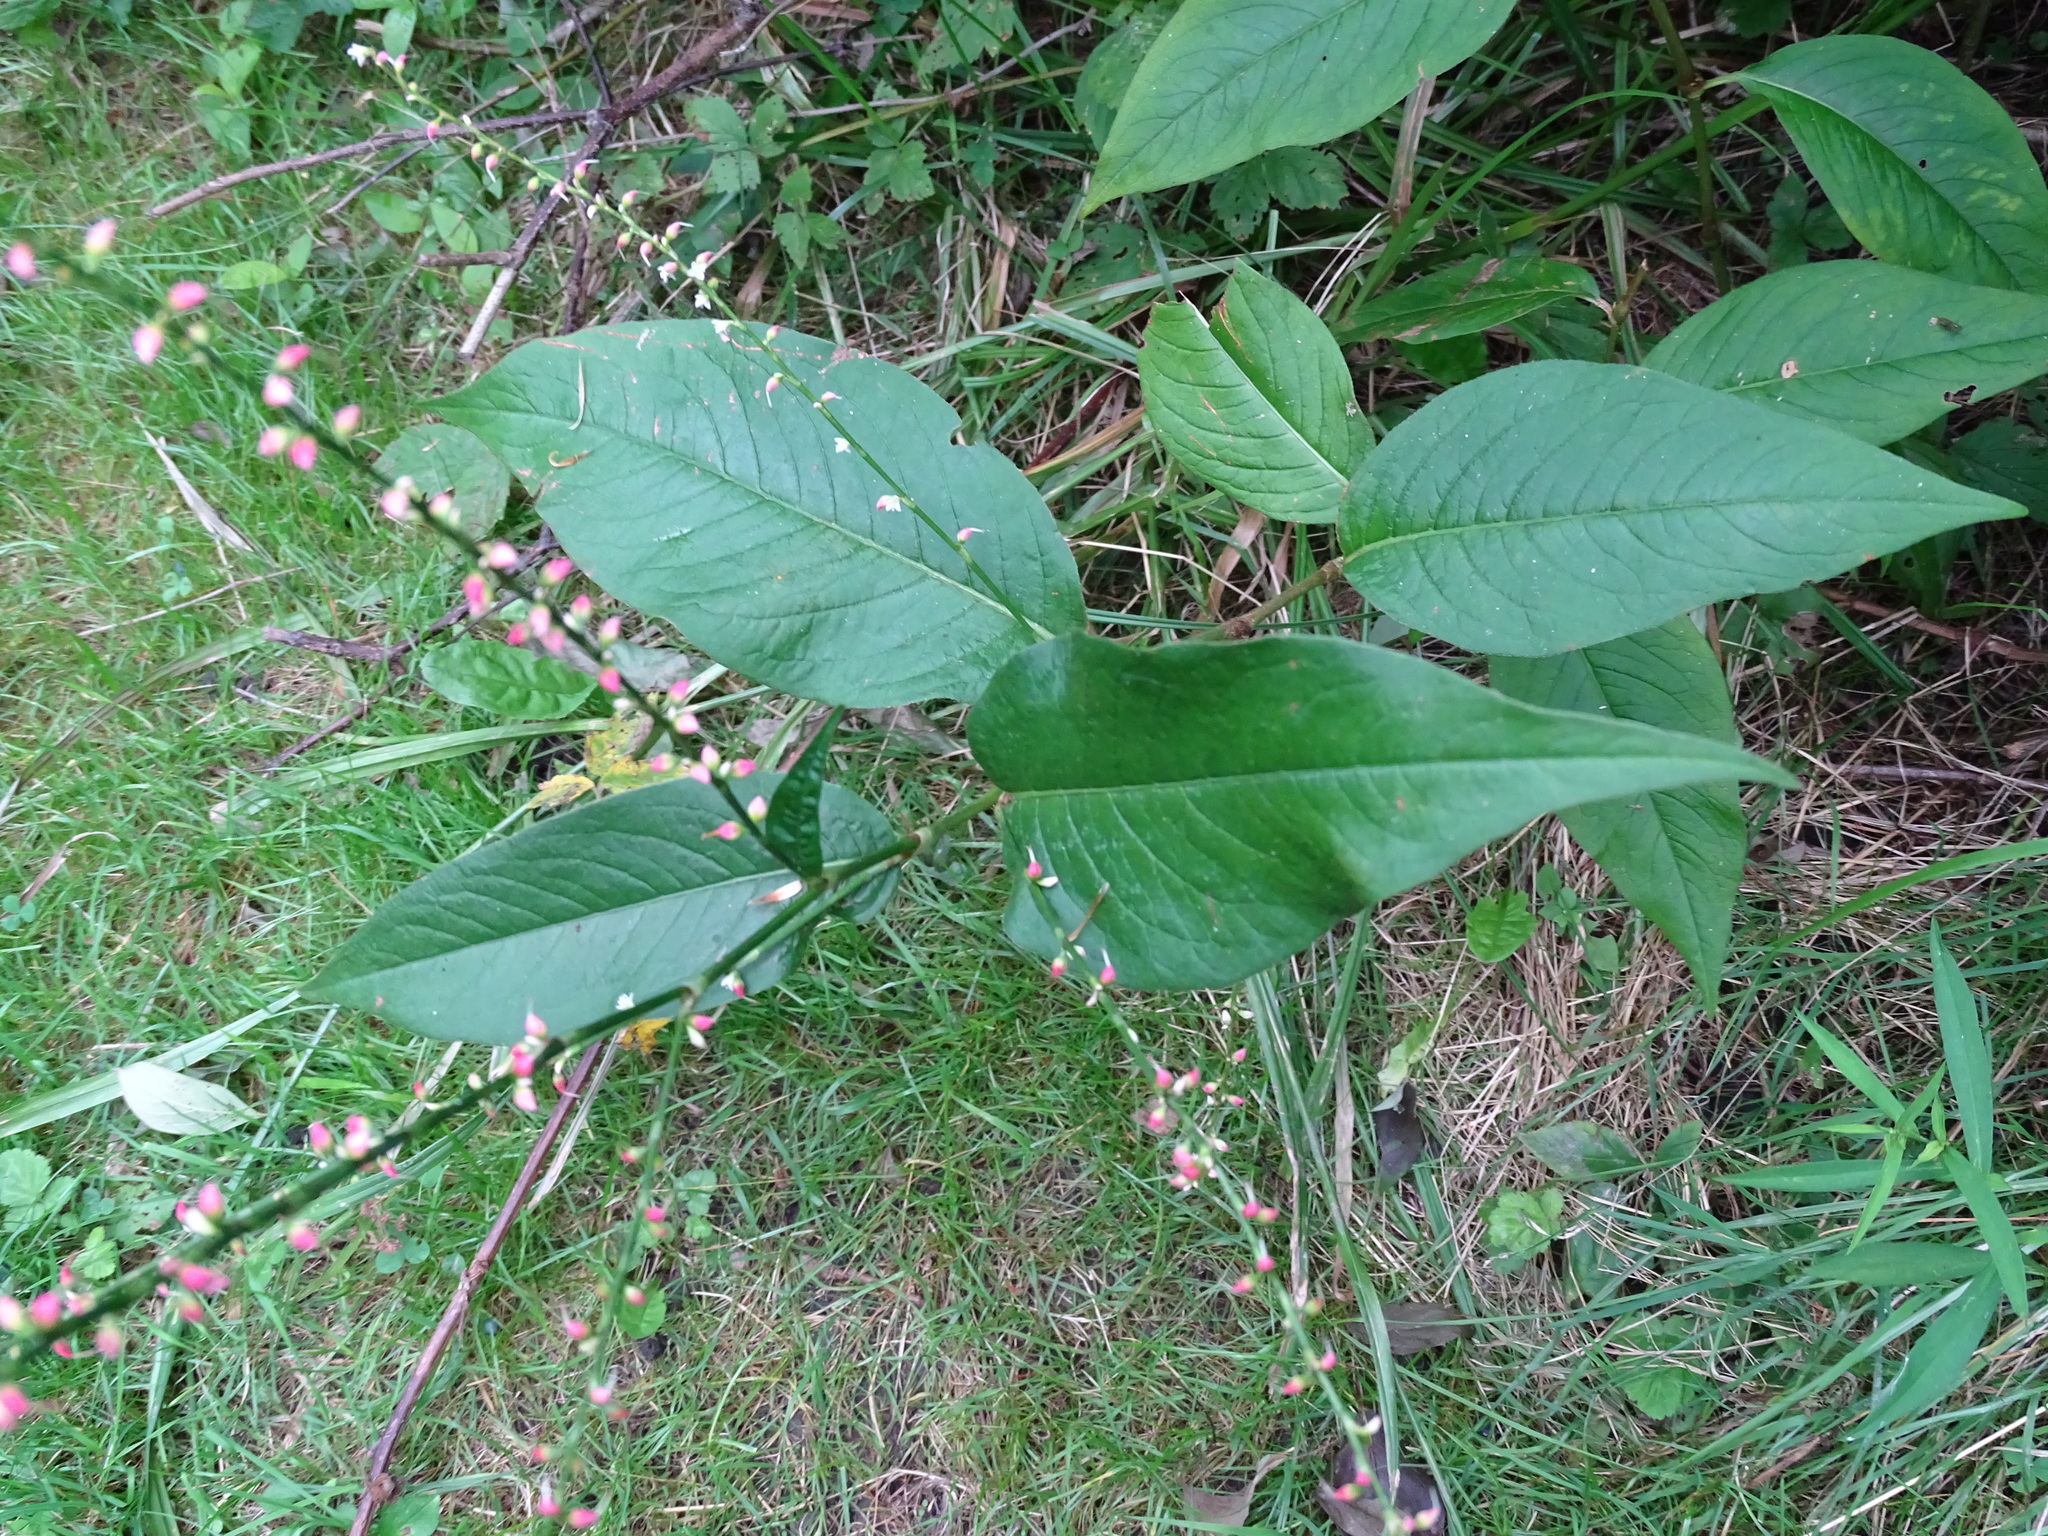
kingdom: Plantae
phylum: Tracheophyta
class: Magnoliopsida
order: Caryophyllales
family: Polygonaceae
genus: Persicaria
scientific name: Persicaria virginiana
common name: Jumpseed
